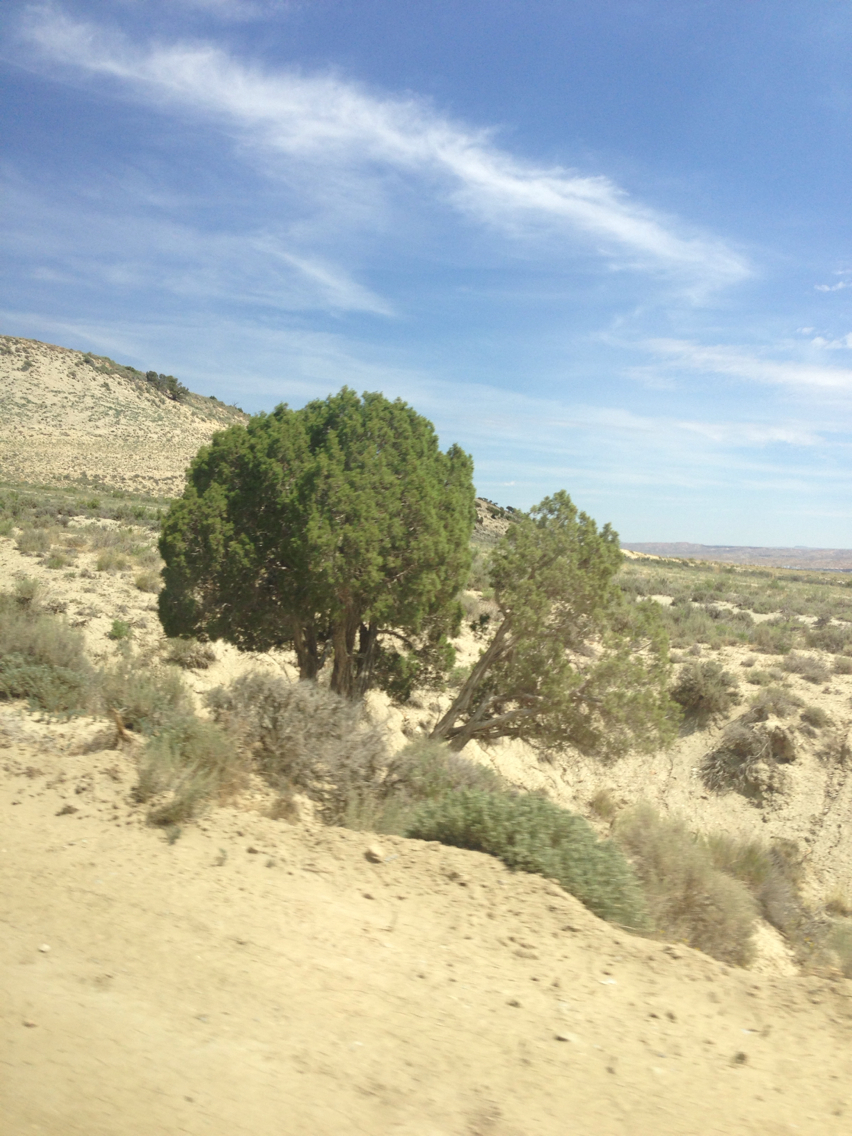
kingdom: Plantae
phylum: Tracheophyta
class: Pinopsida
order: Pinales
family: Cupressaceae
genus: Juniperus
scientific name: Juniperus osteosperma
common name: Utah juniper
